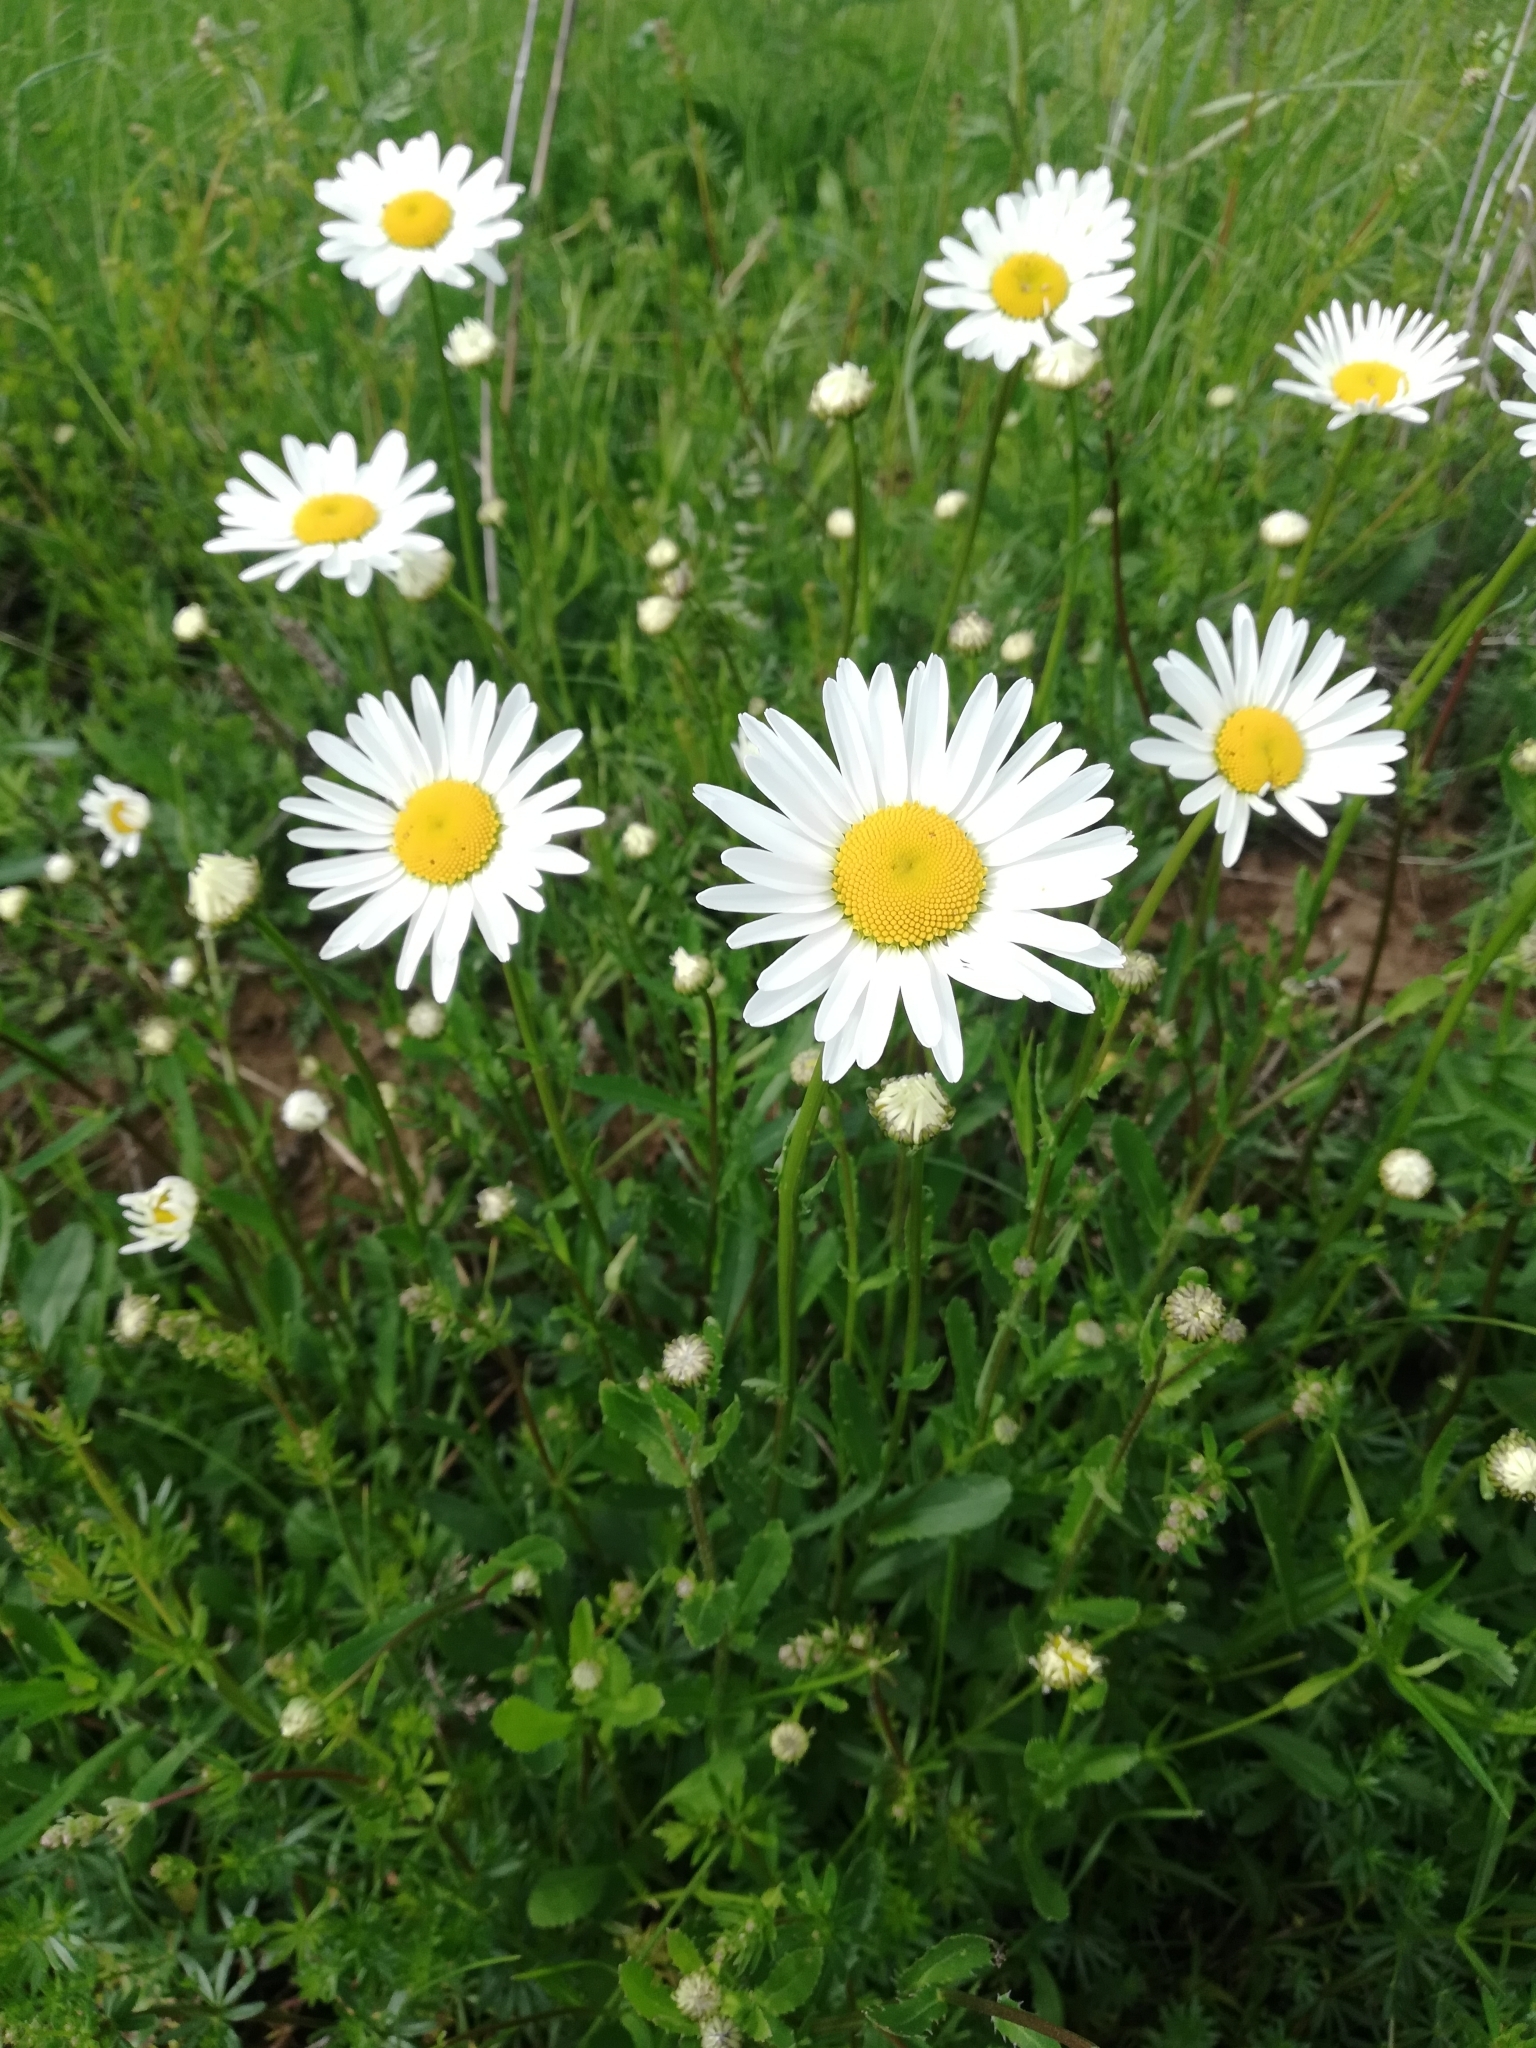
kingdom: Plantae
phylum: Tracheophyta
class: Magnoliopsida
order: Asterales
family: Asteraceae
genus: Leucanthemum
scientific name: Leucanthemum vulgare
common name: Oxeye daisy
